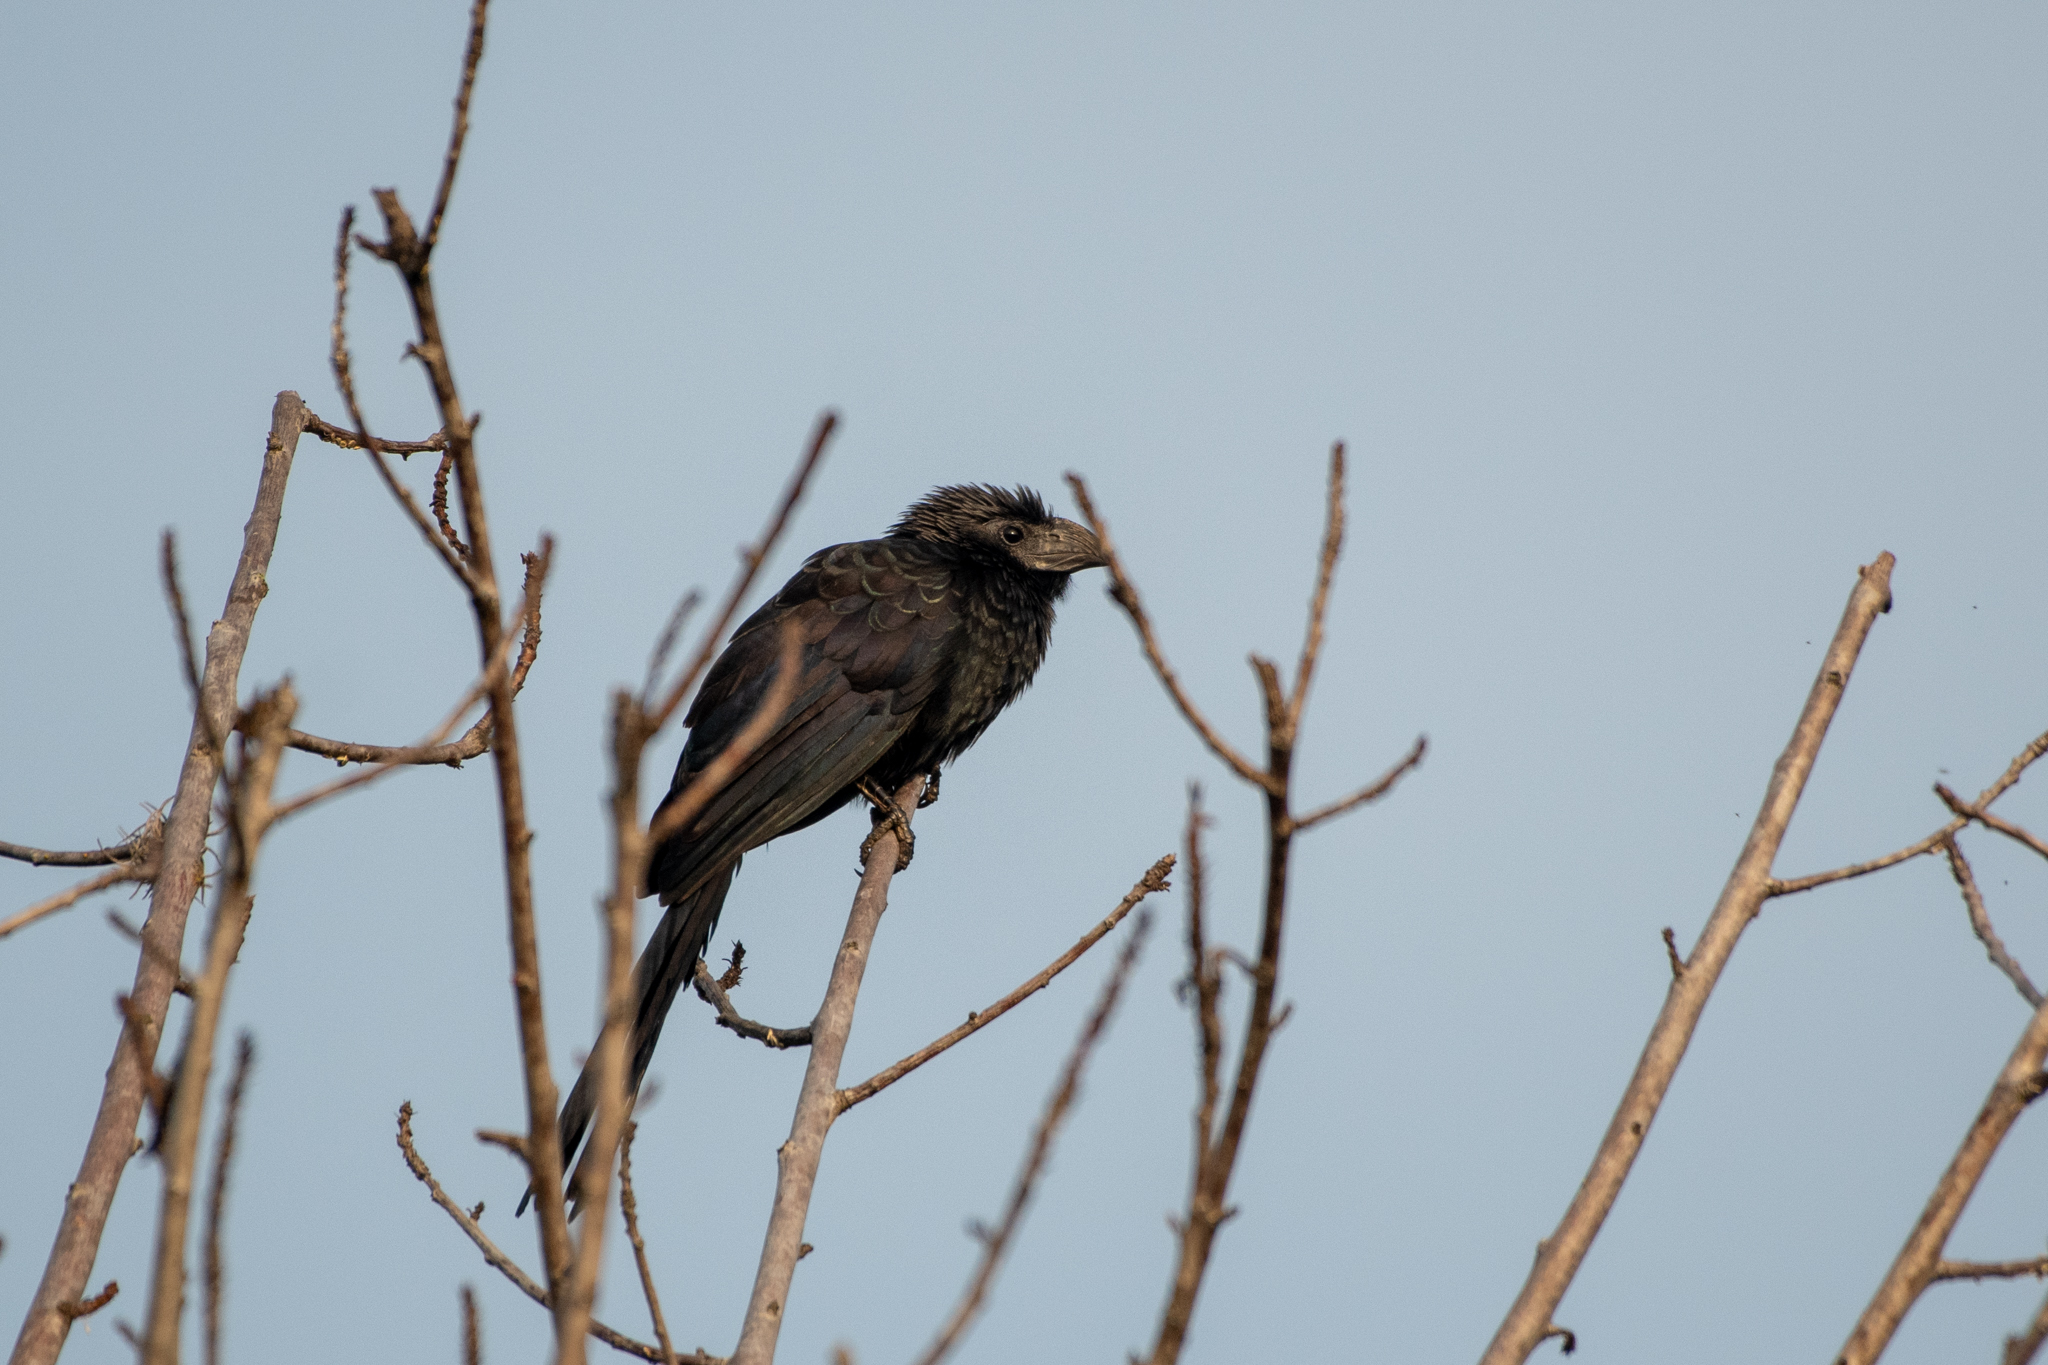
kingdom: Animalia
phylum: Chordata
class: Aves
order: Cuculiformes
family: Cuculidae
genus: Crotophaga
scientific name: Crotophaga sulcirostris
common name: Groove-billed ani
